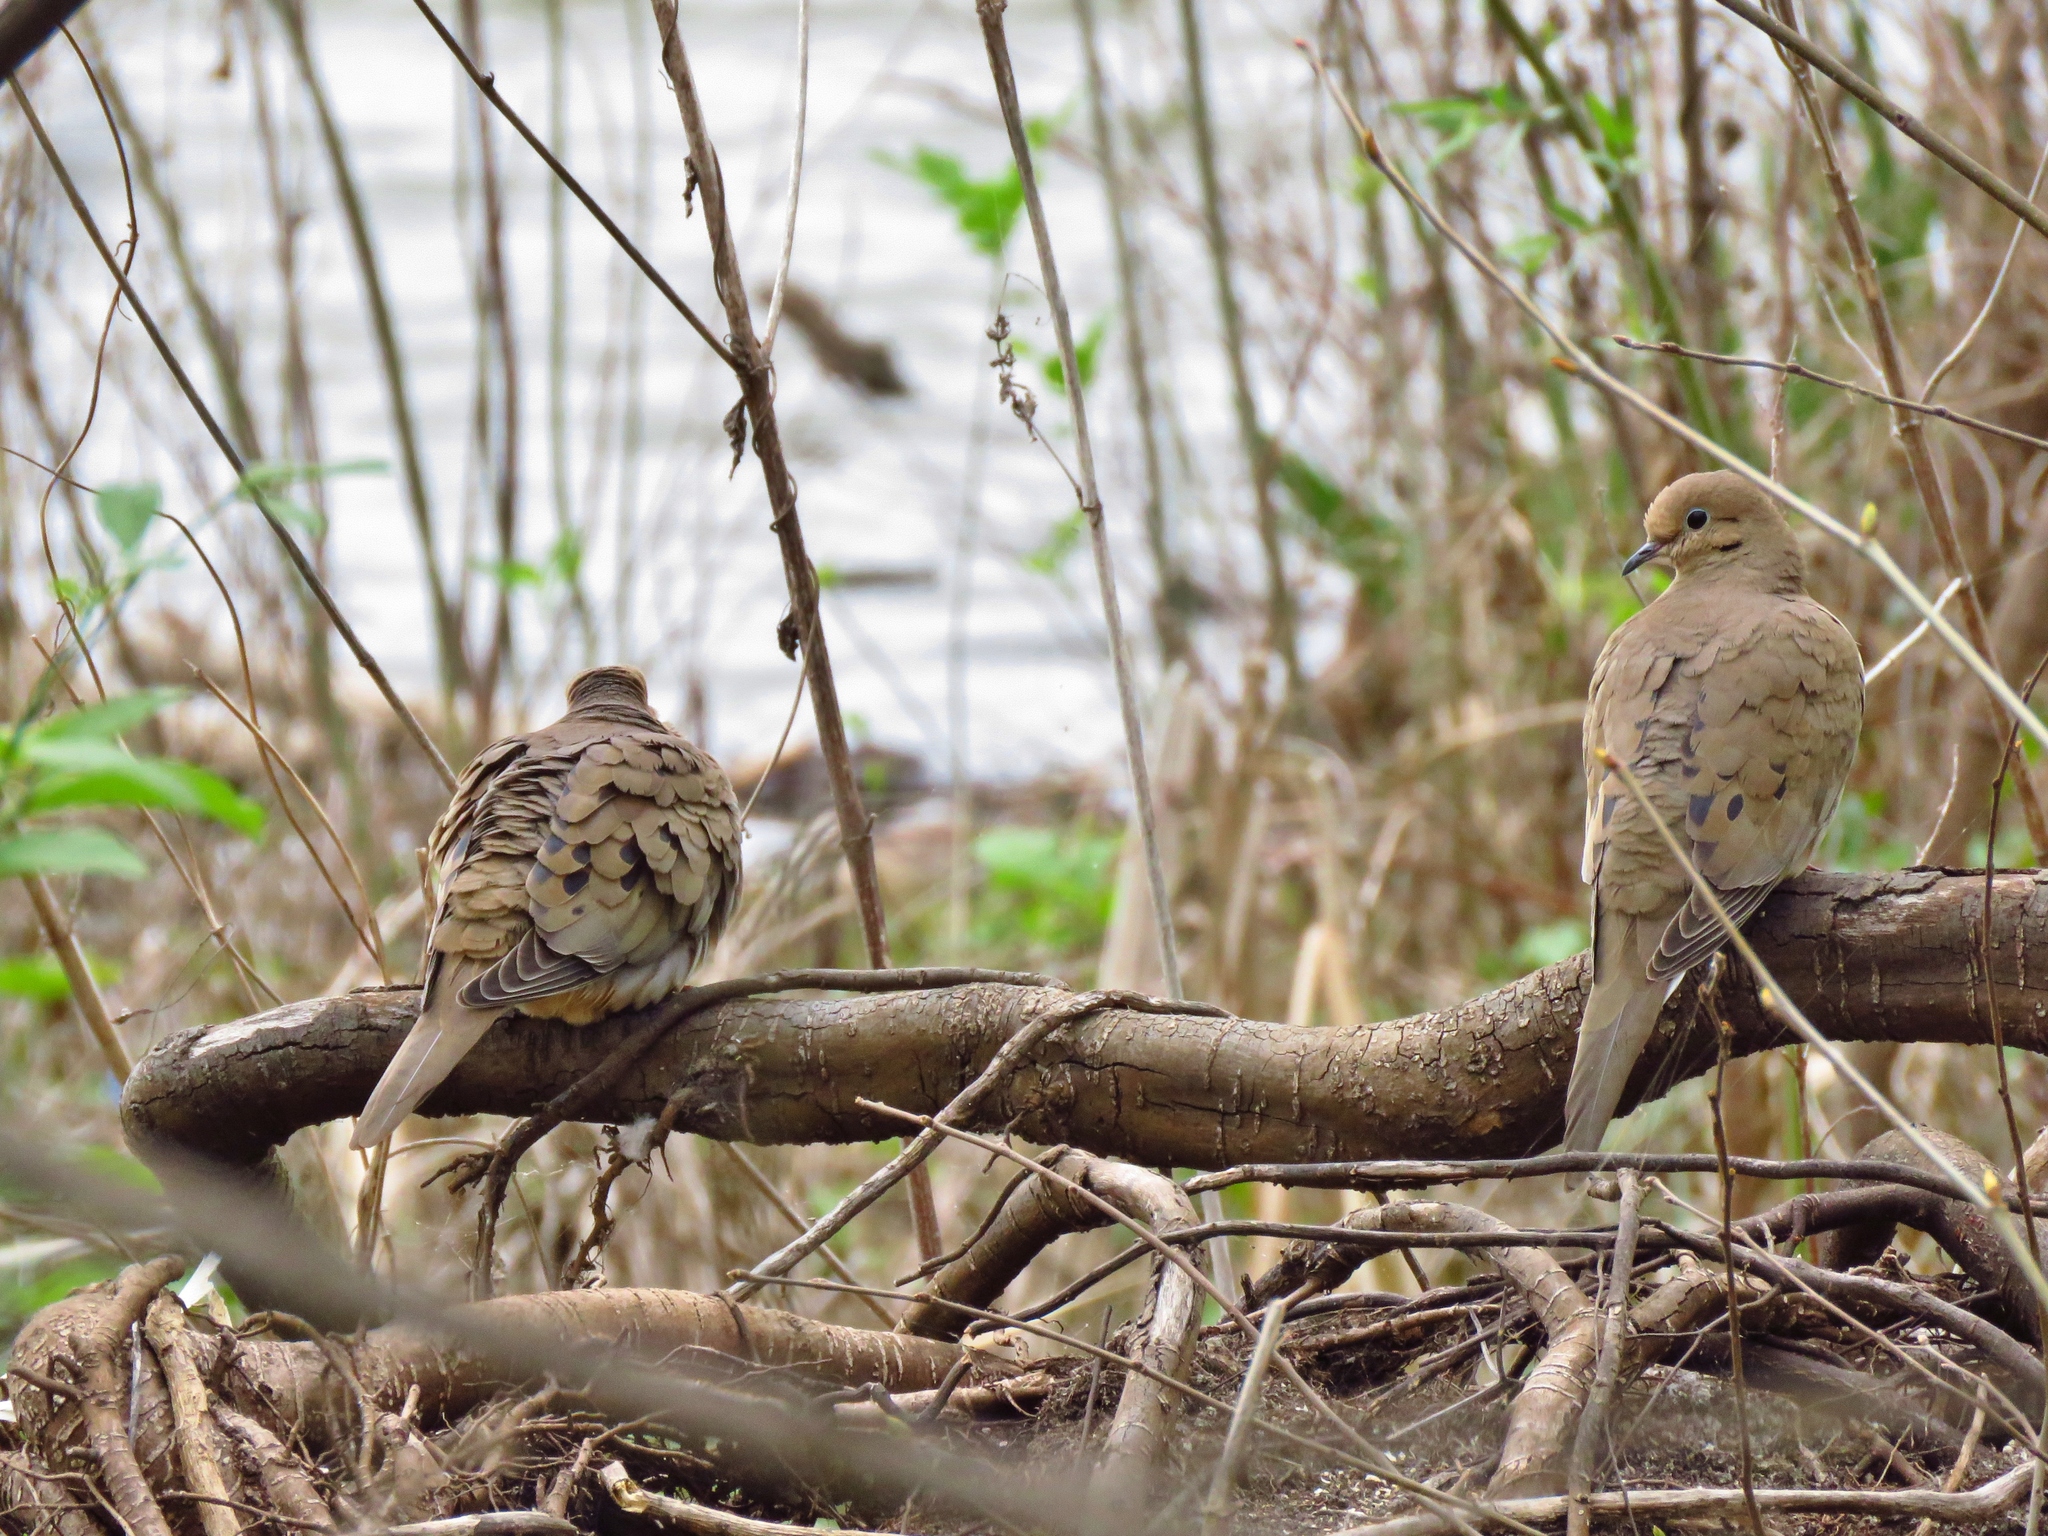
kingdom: Animalia
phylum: Chordata
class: Aves
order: Columbiformes
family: Columbidae
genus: Zenaida
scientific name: Zenaida macroura
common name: Mourning dove
